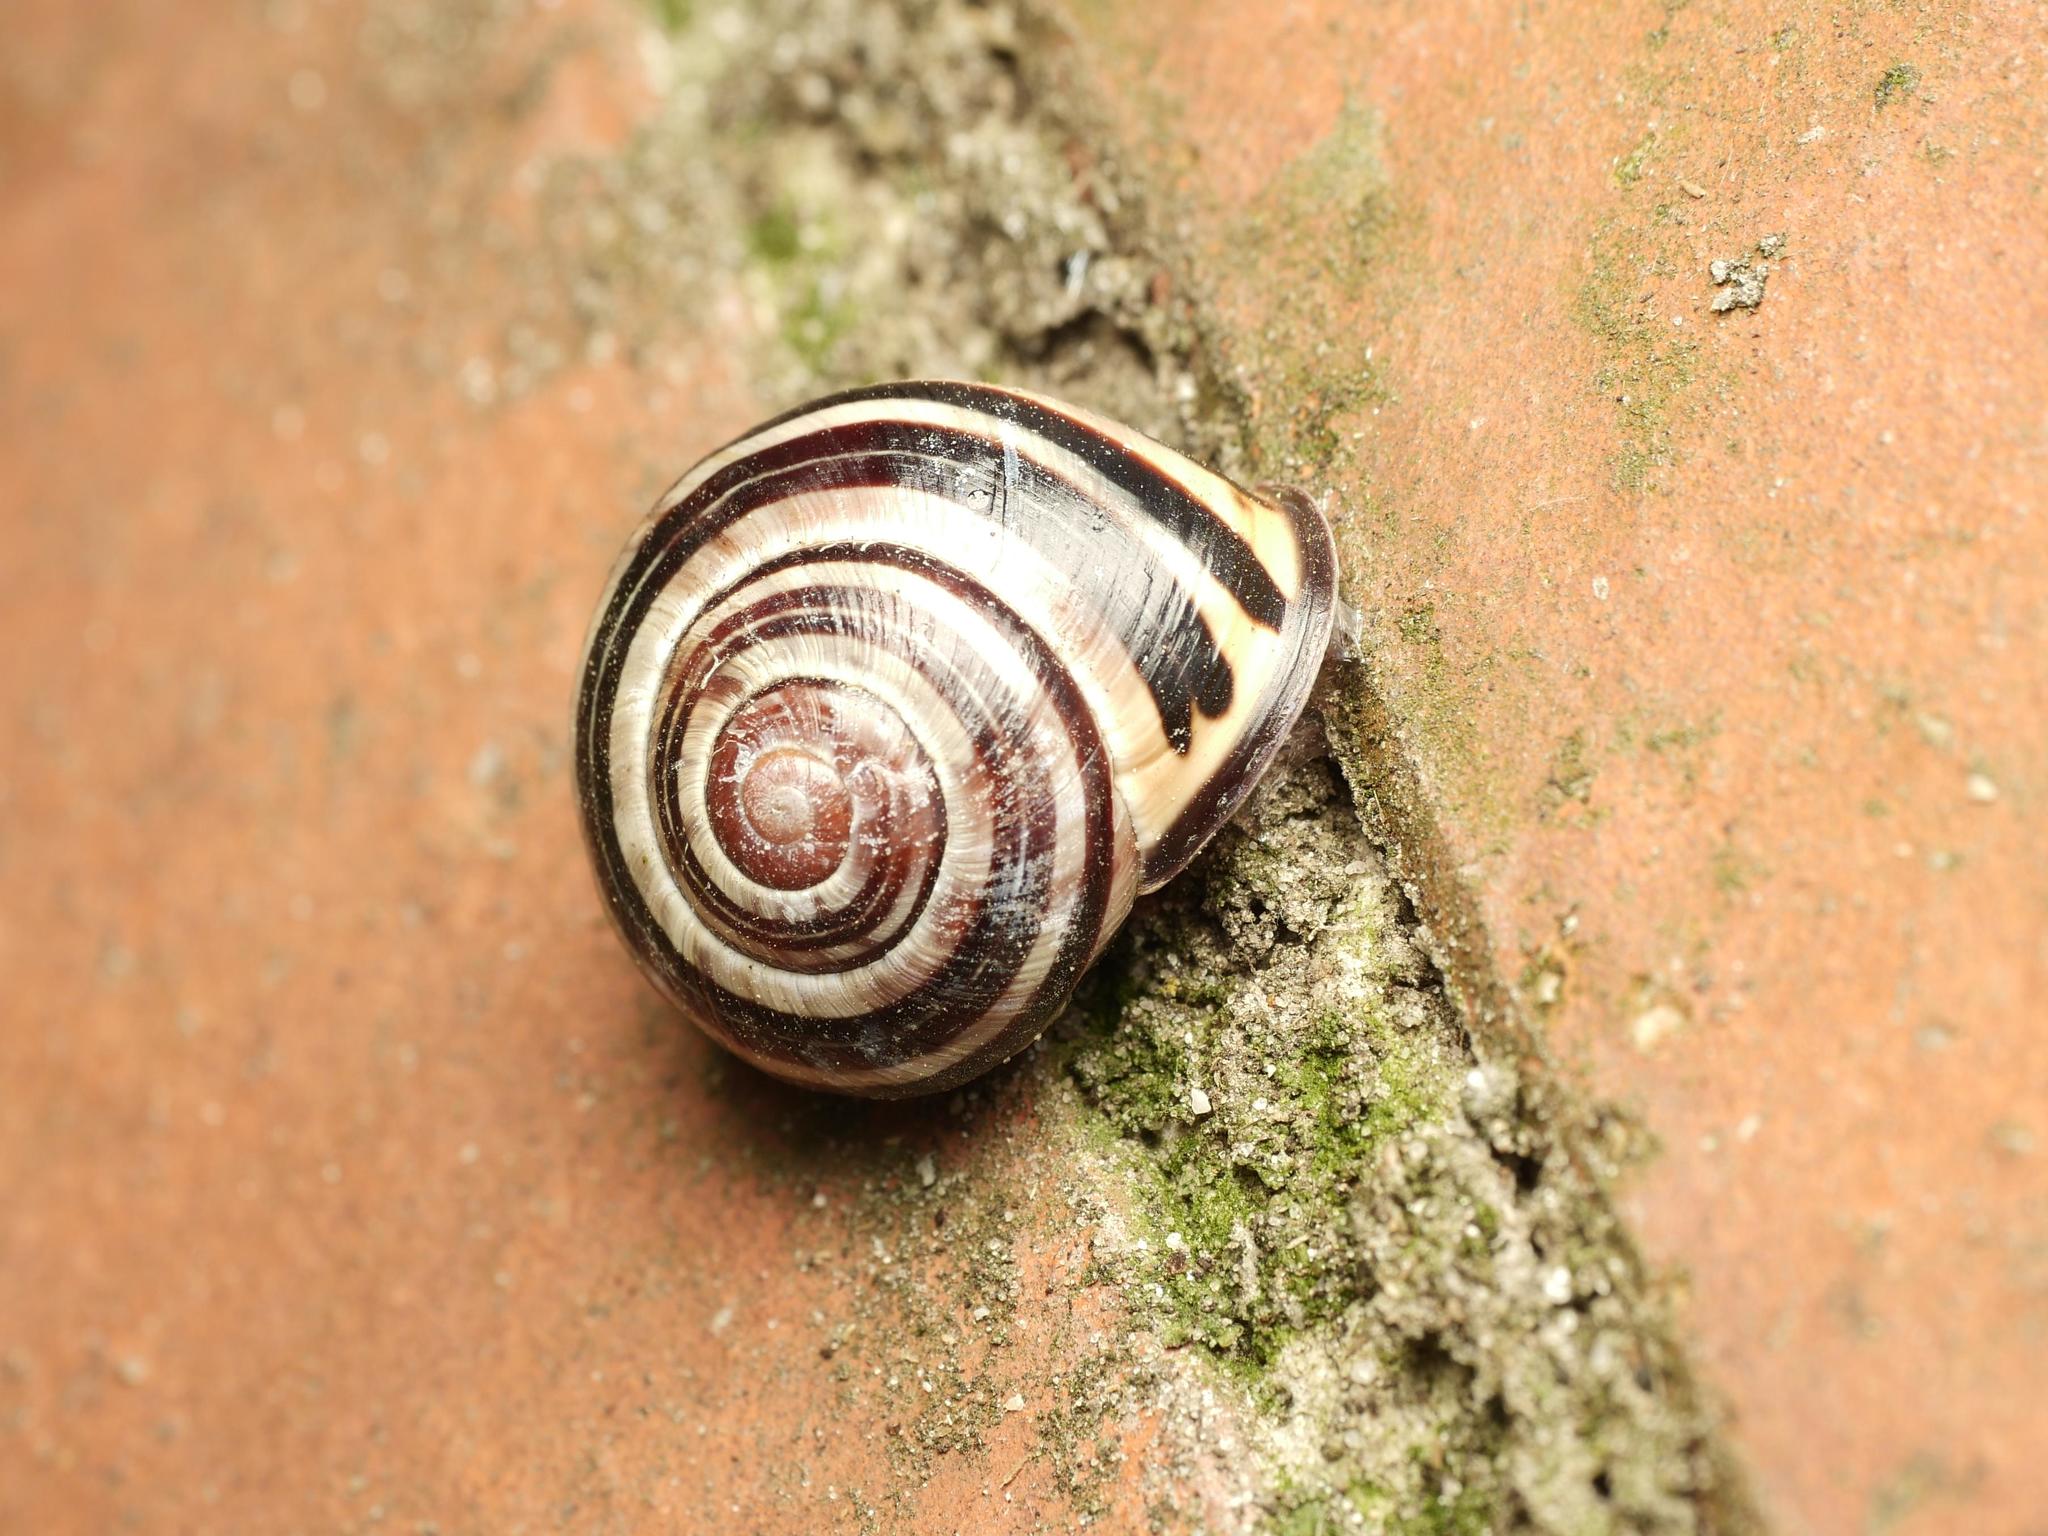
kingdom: Animalia
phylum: Mollusca
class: Gastropoda
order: Stylommatophora
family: Helicidae
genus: Cepaea
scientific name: Cepaea nemoralis
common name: Grovesnail
